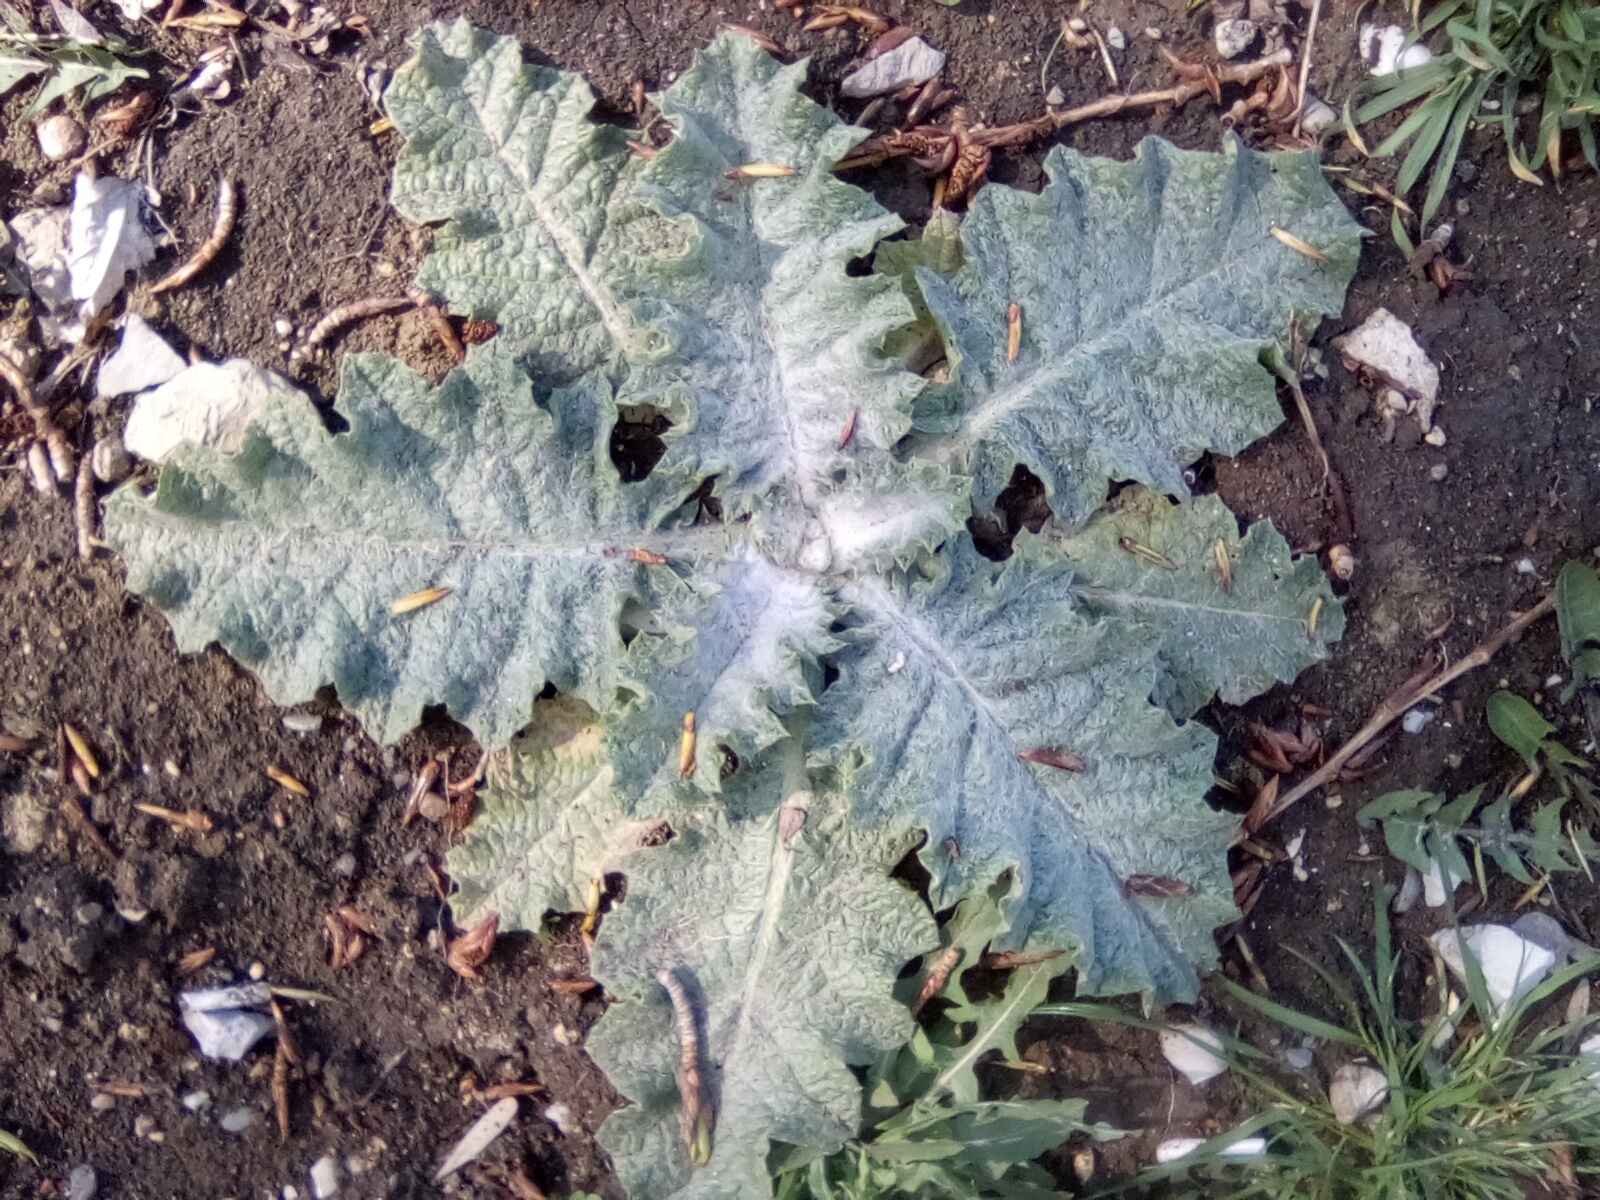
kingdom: Plantae
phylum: Tracheophyta
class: Magnoliopsida
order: Asterales
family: Asteraceae
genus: Onopordum
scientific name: Onopordum acanthium
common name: Scotch thistle
